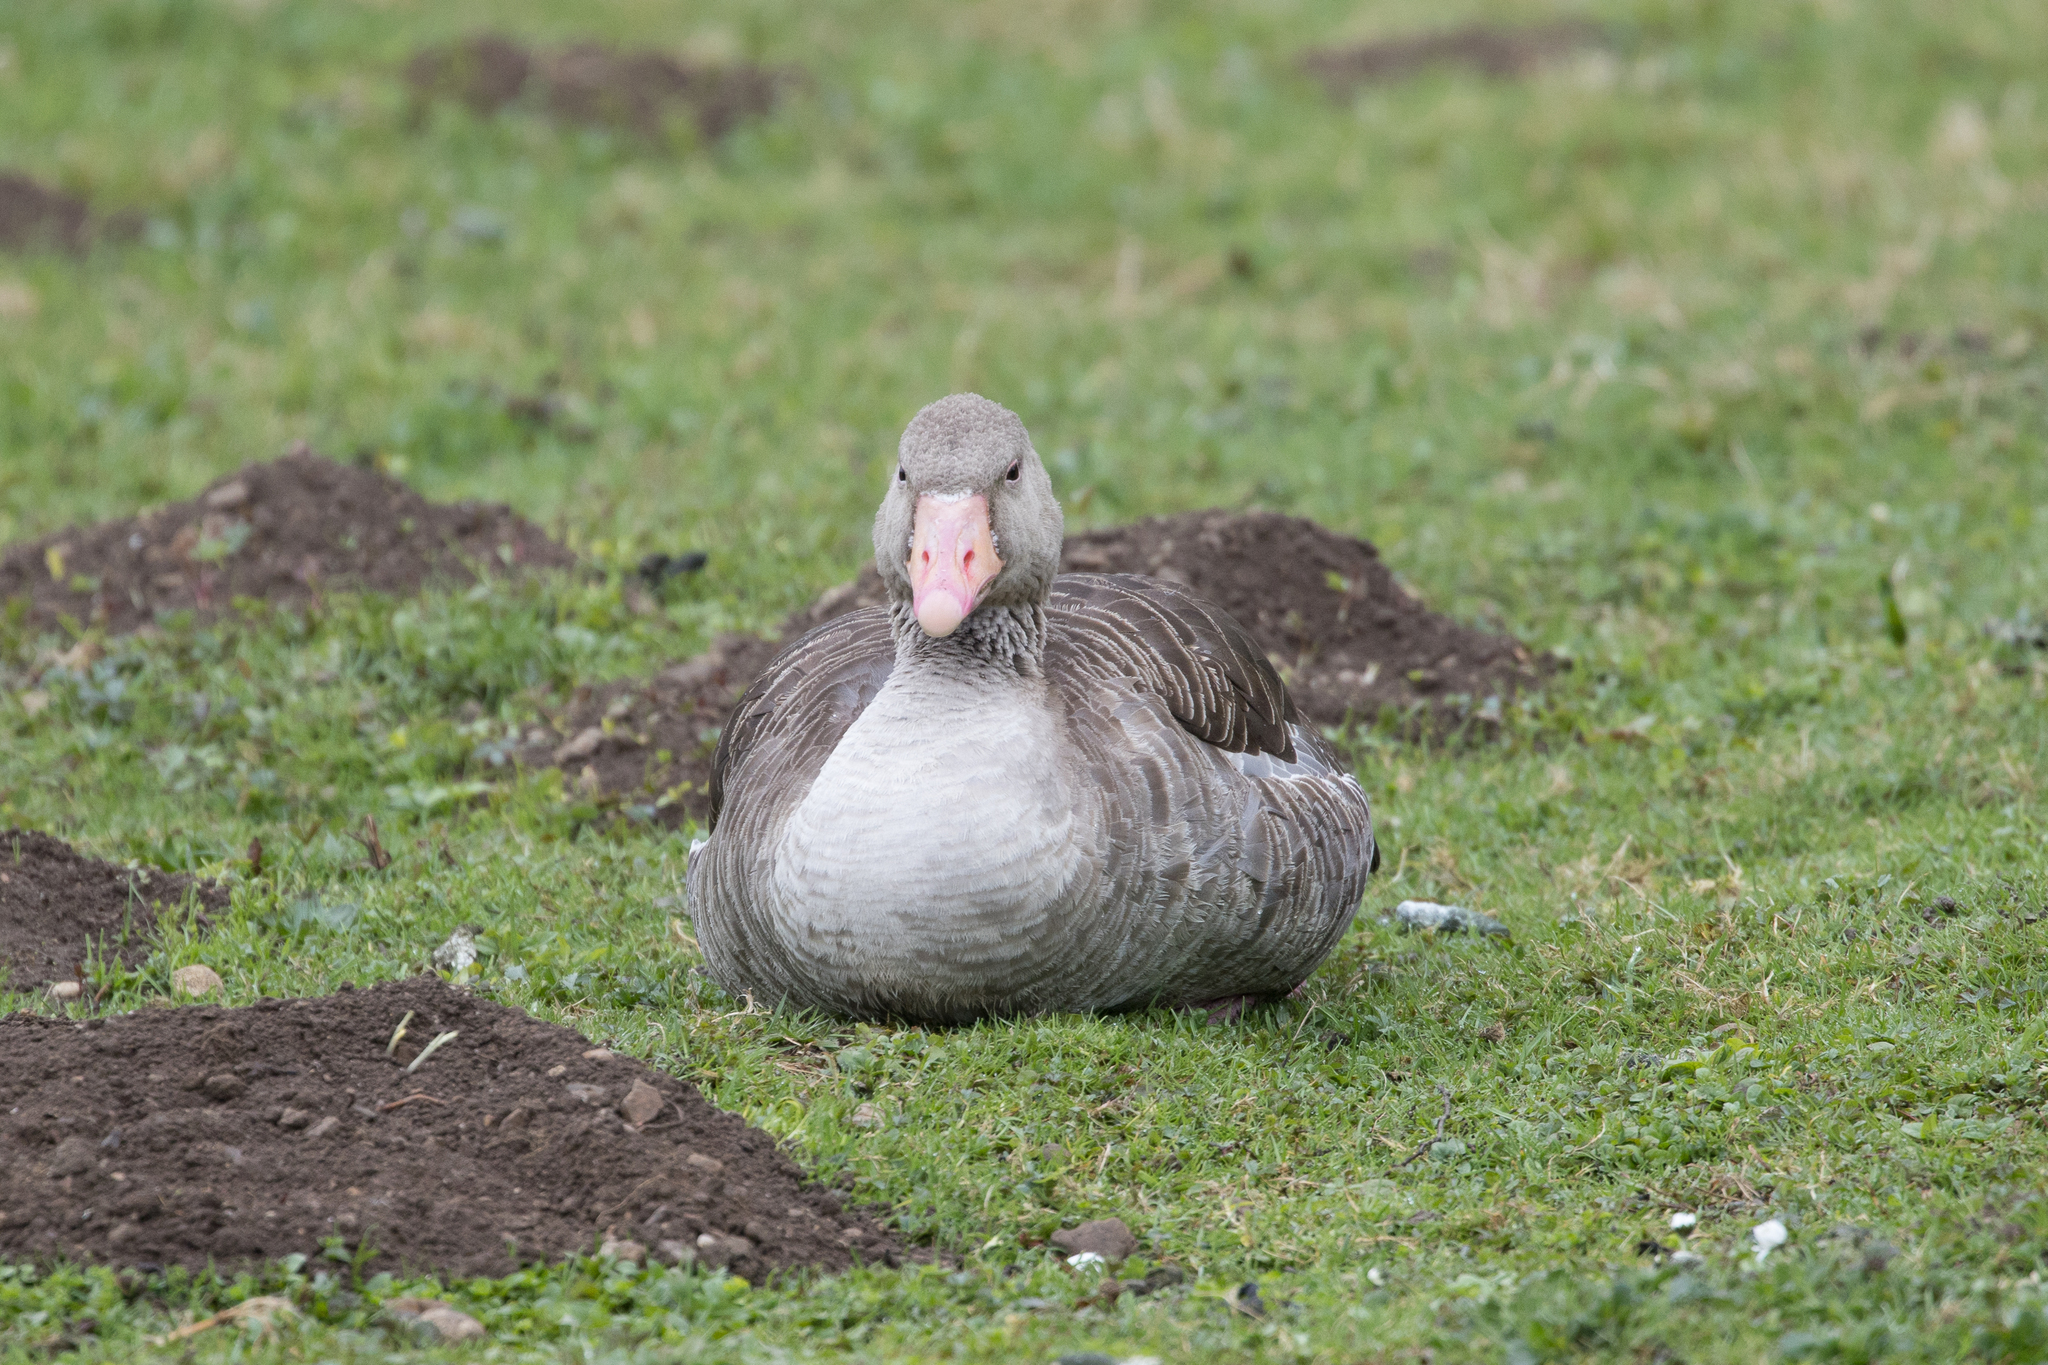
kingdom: Animalia
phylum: Chordata
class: Aves
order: Anseriformes
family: Anatidae
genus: Anser
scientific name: Anser anser
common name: Greylag goose
